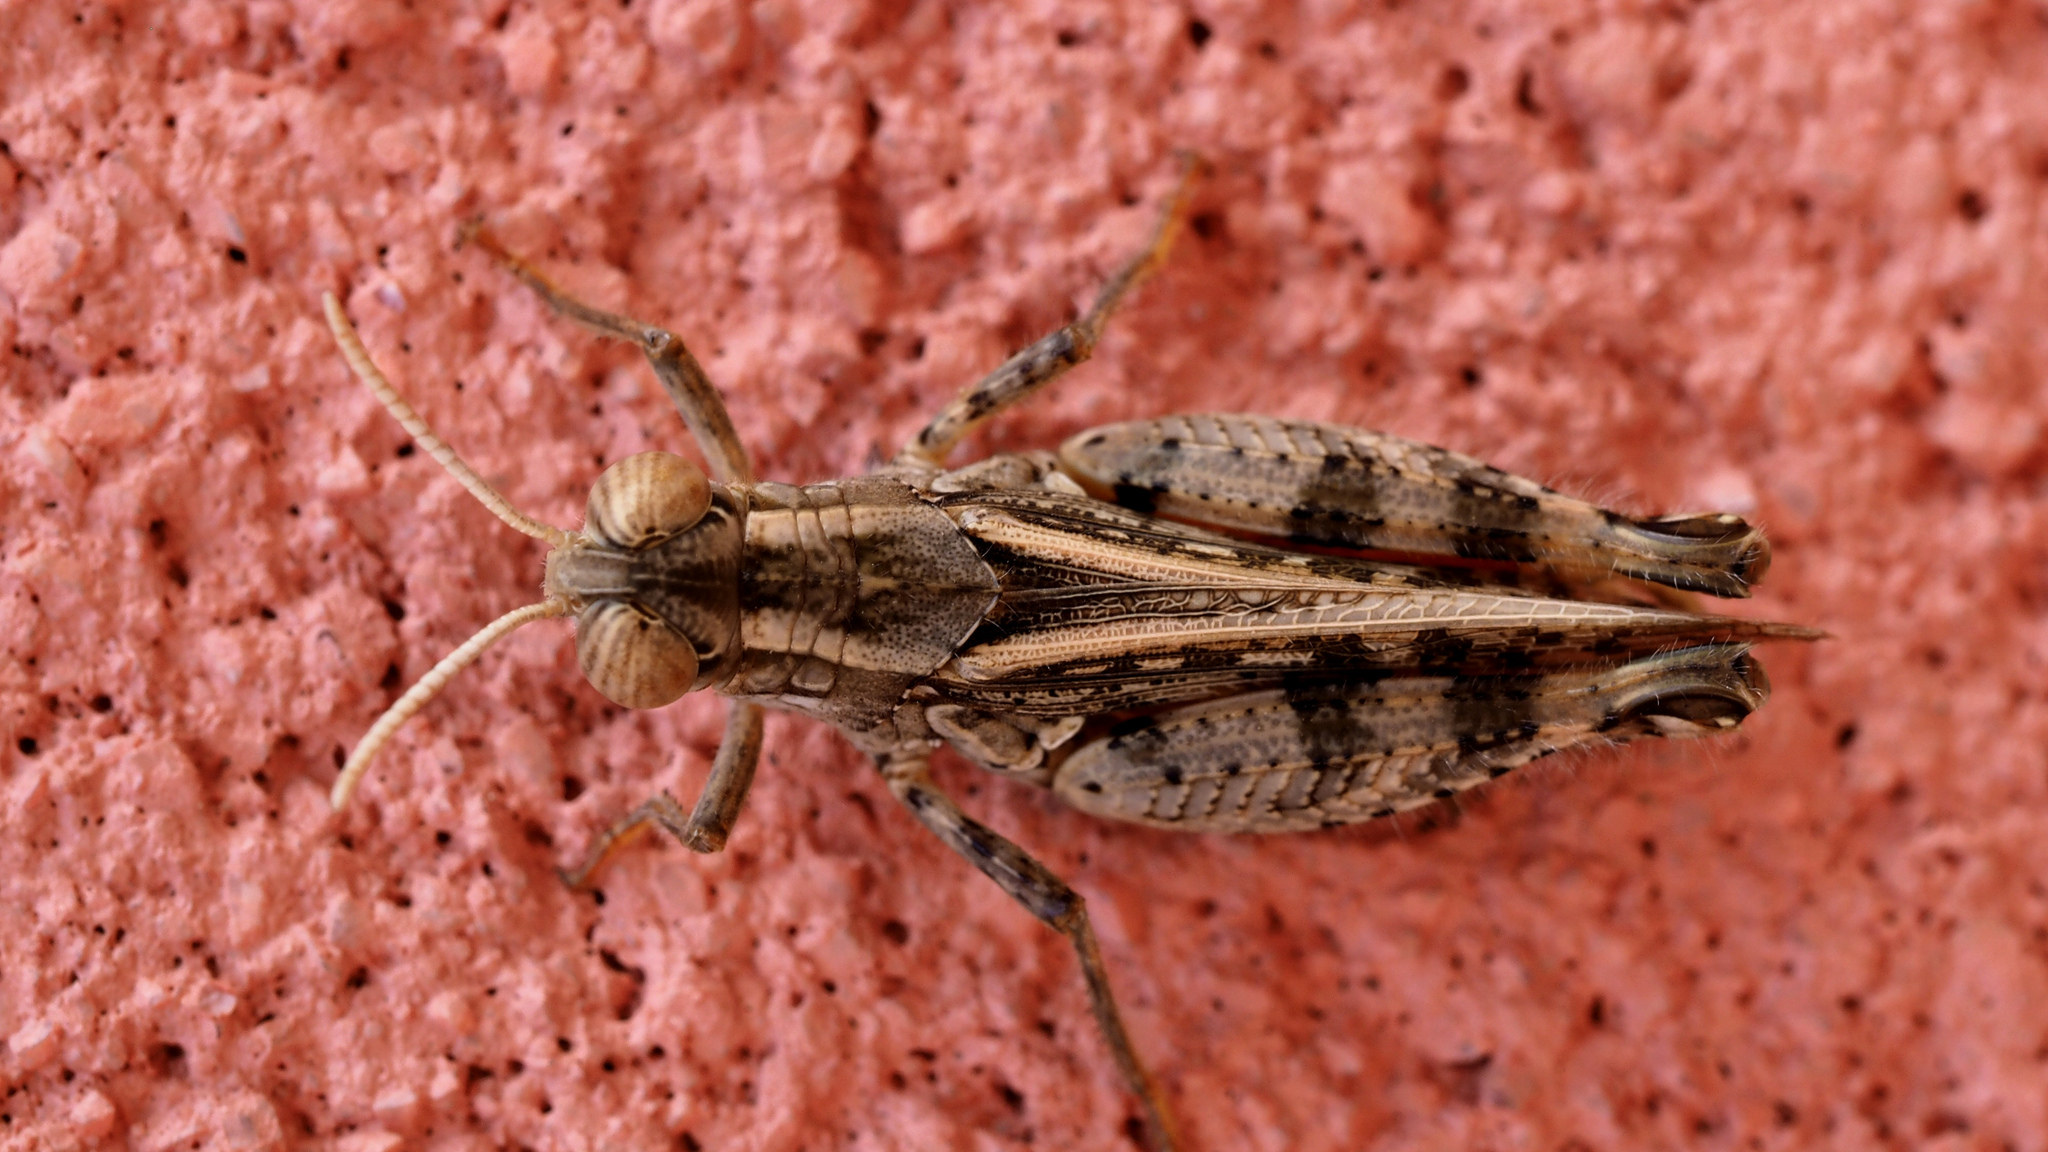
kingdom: Animalia
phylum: Arthropoda
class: Insecta
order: Orthoptera
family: Acrididae
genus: Calliptamus
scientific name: Calliptamus barbarus
